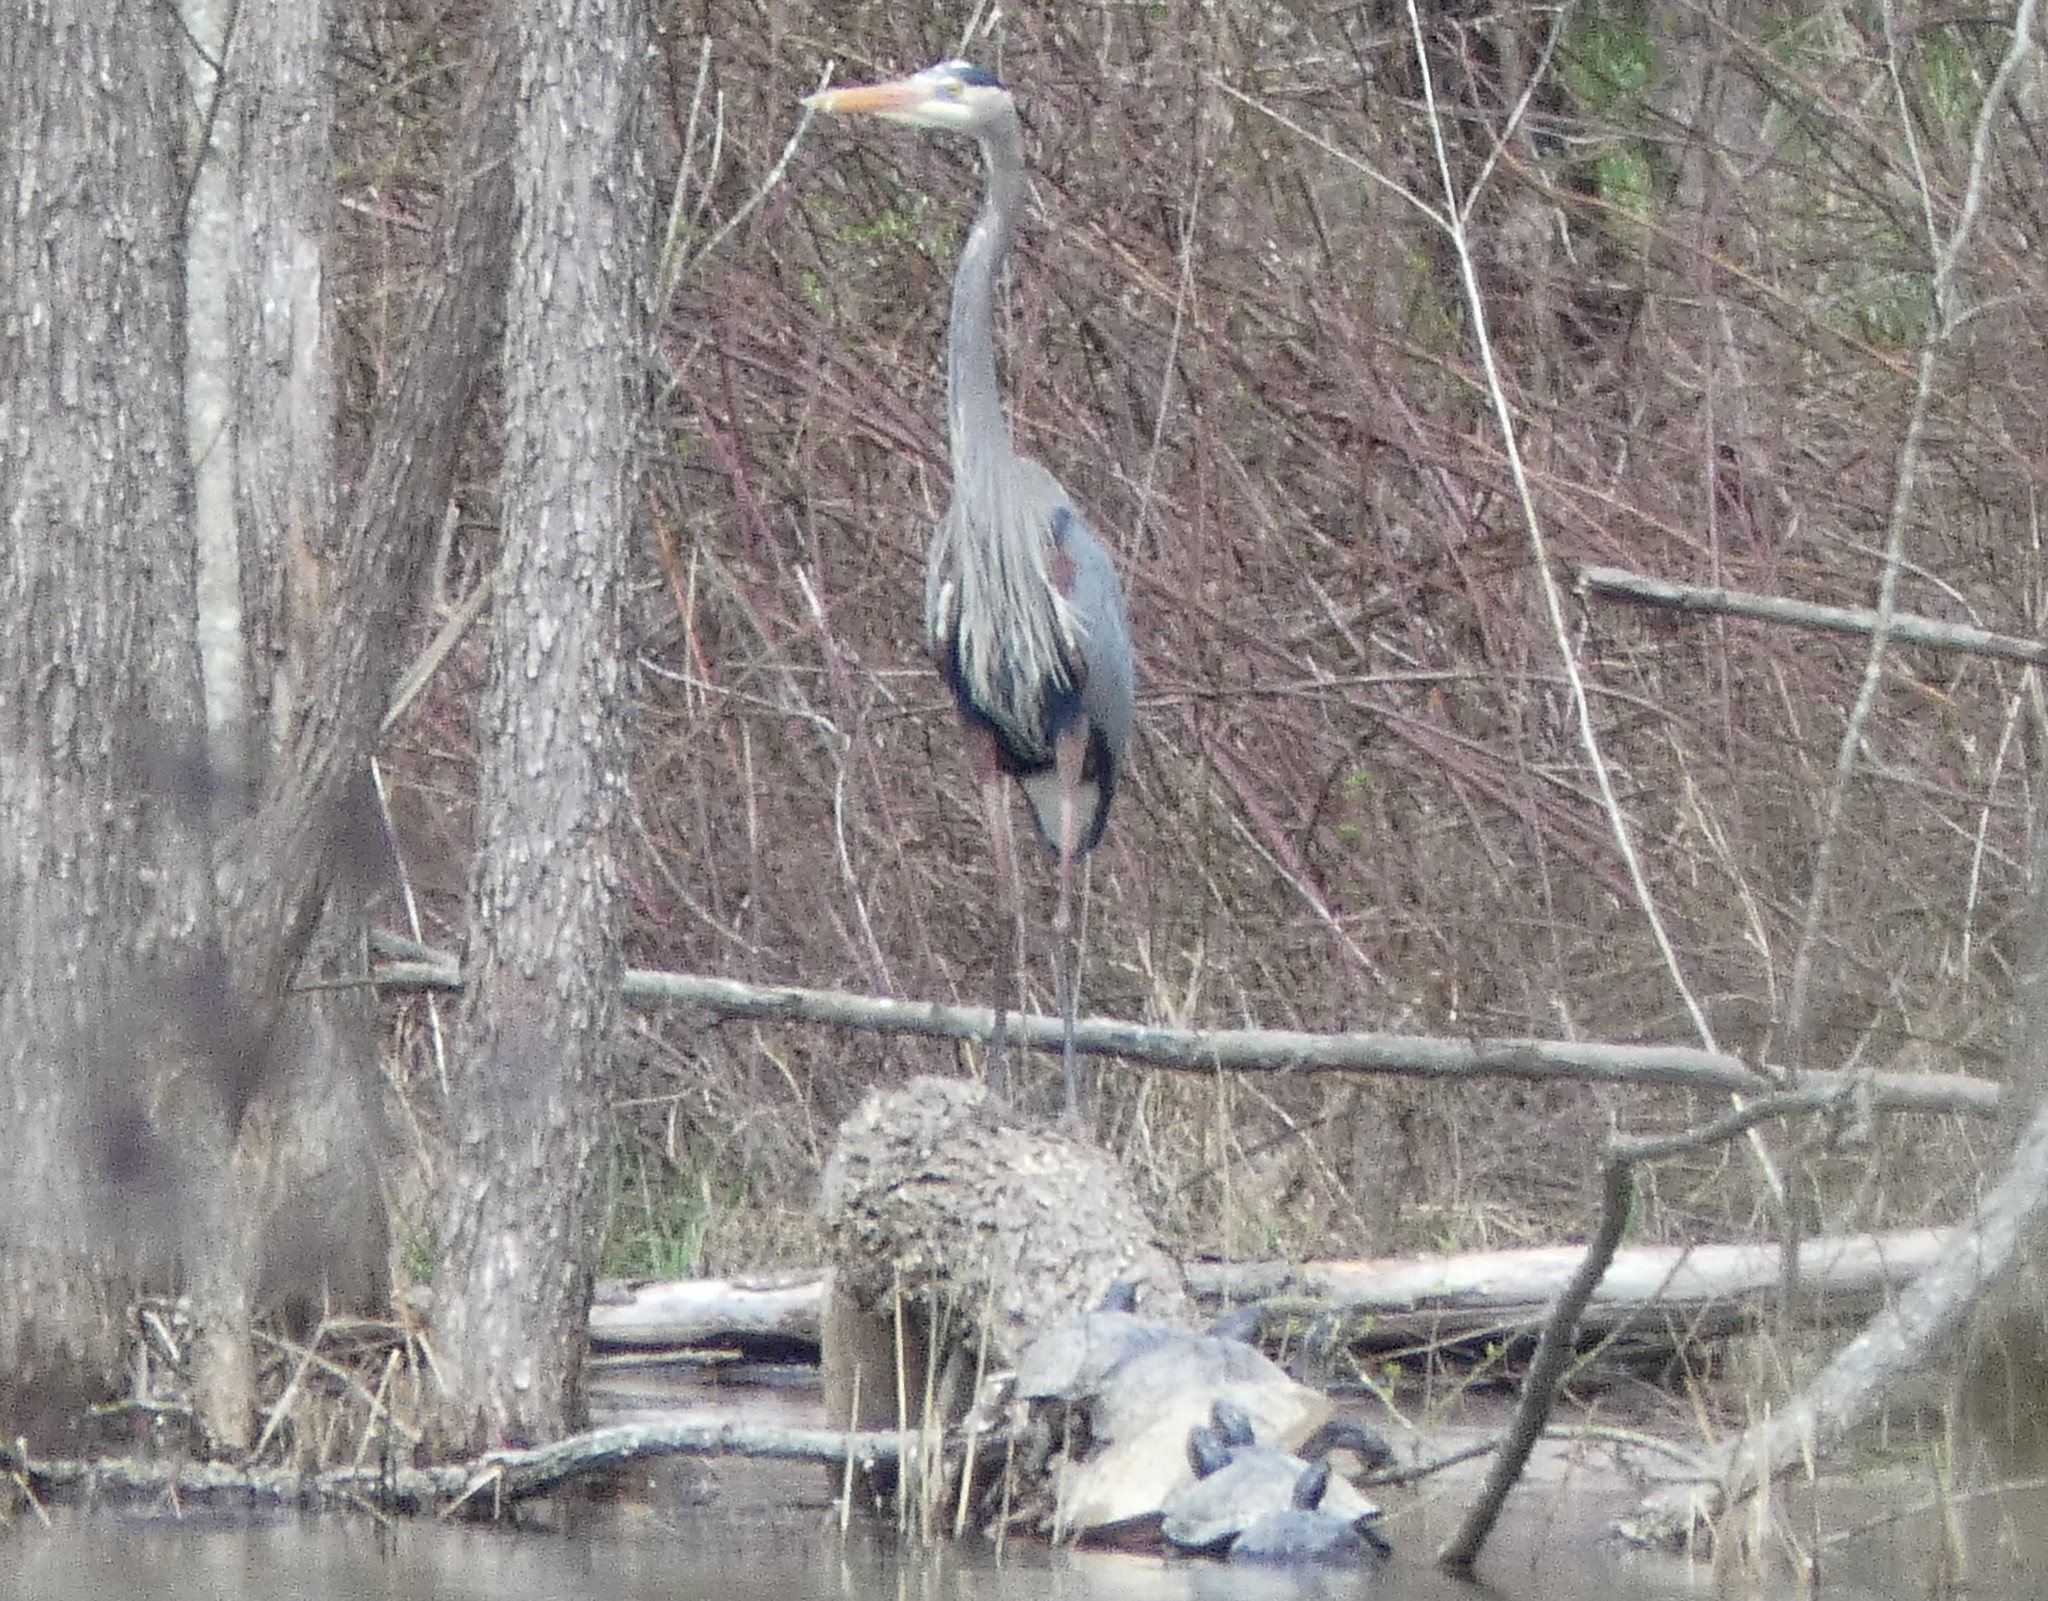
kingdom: Animalia
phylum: Chordata
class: Aves
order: Pelecaniformes
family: Ardeidae
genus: Ardea
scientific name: Ardea herodias
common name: Great blue heron
